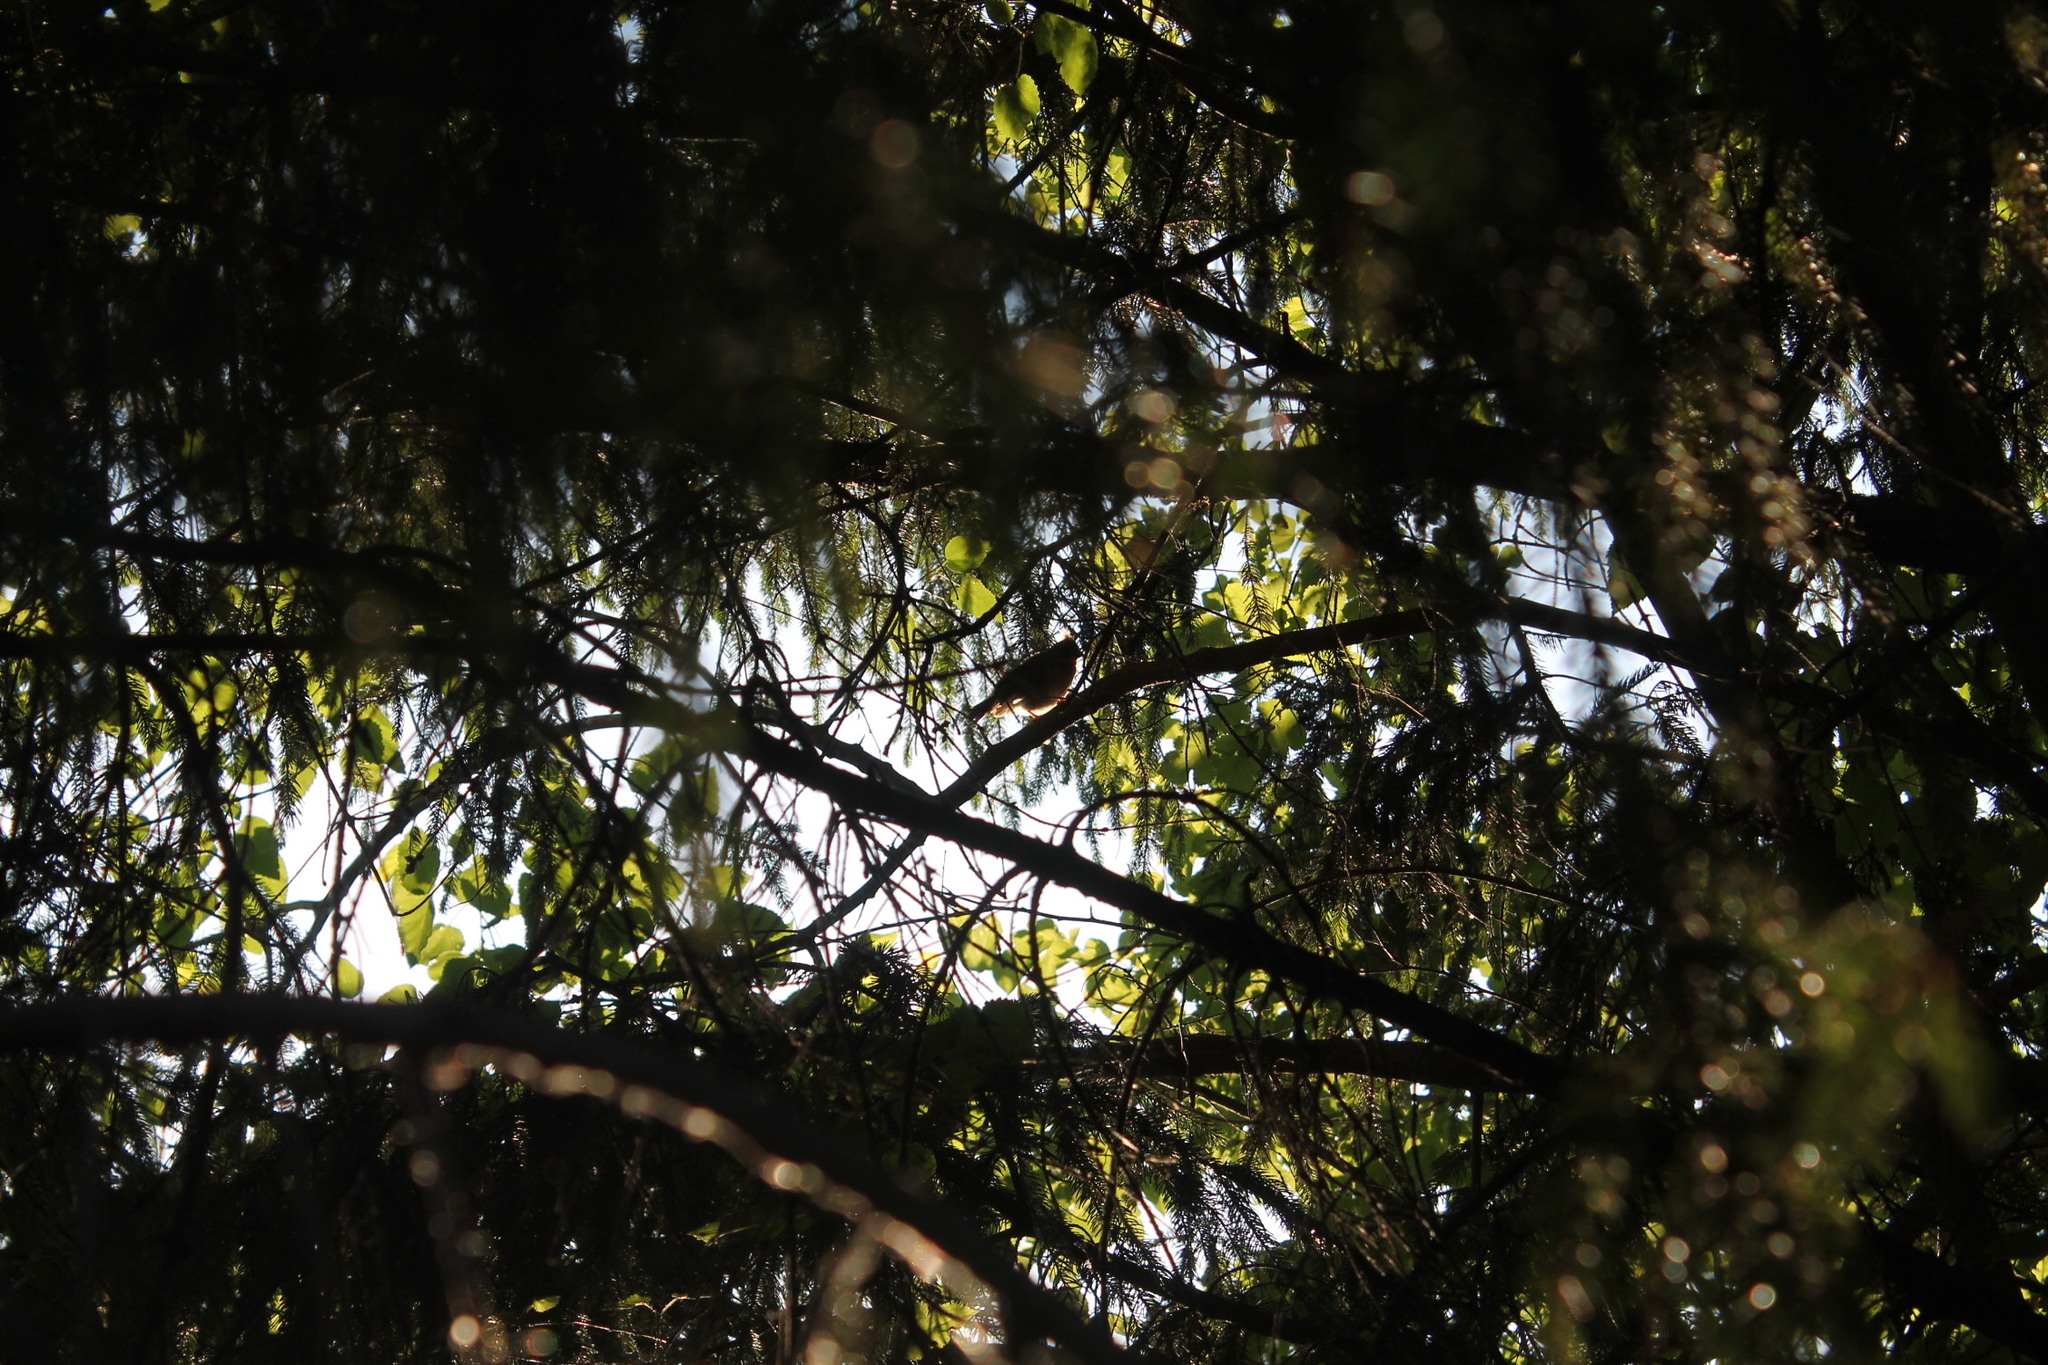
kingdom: Animalia
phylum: Chordata
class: Aves
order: Passeriformes
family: Cardinalidae
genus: Cardinalis
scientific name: Cardinalis cardinalis
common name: Northern cardinal
